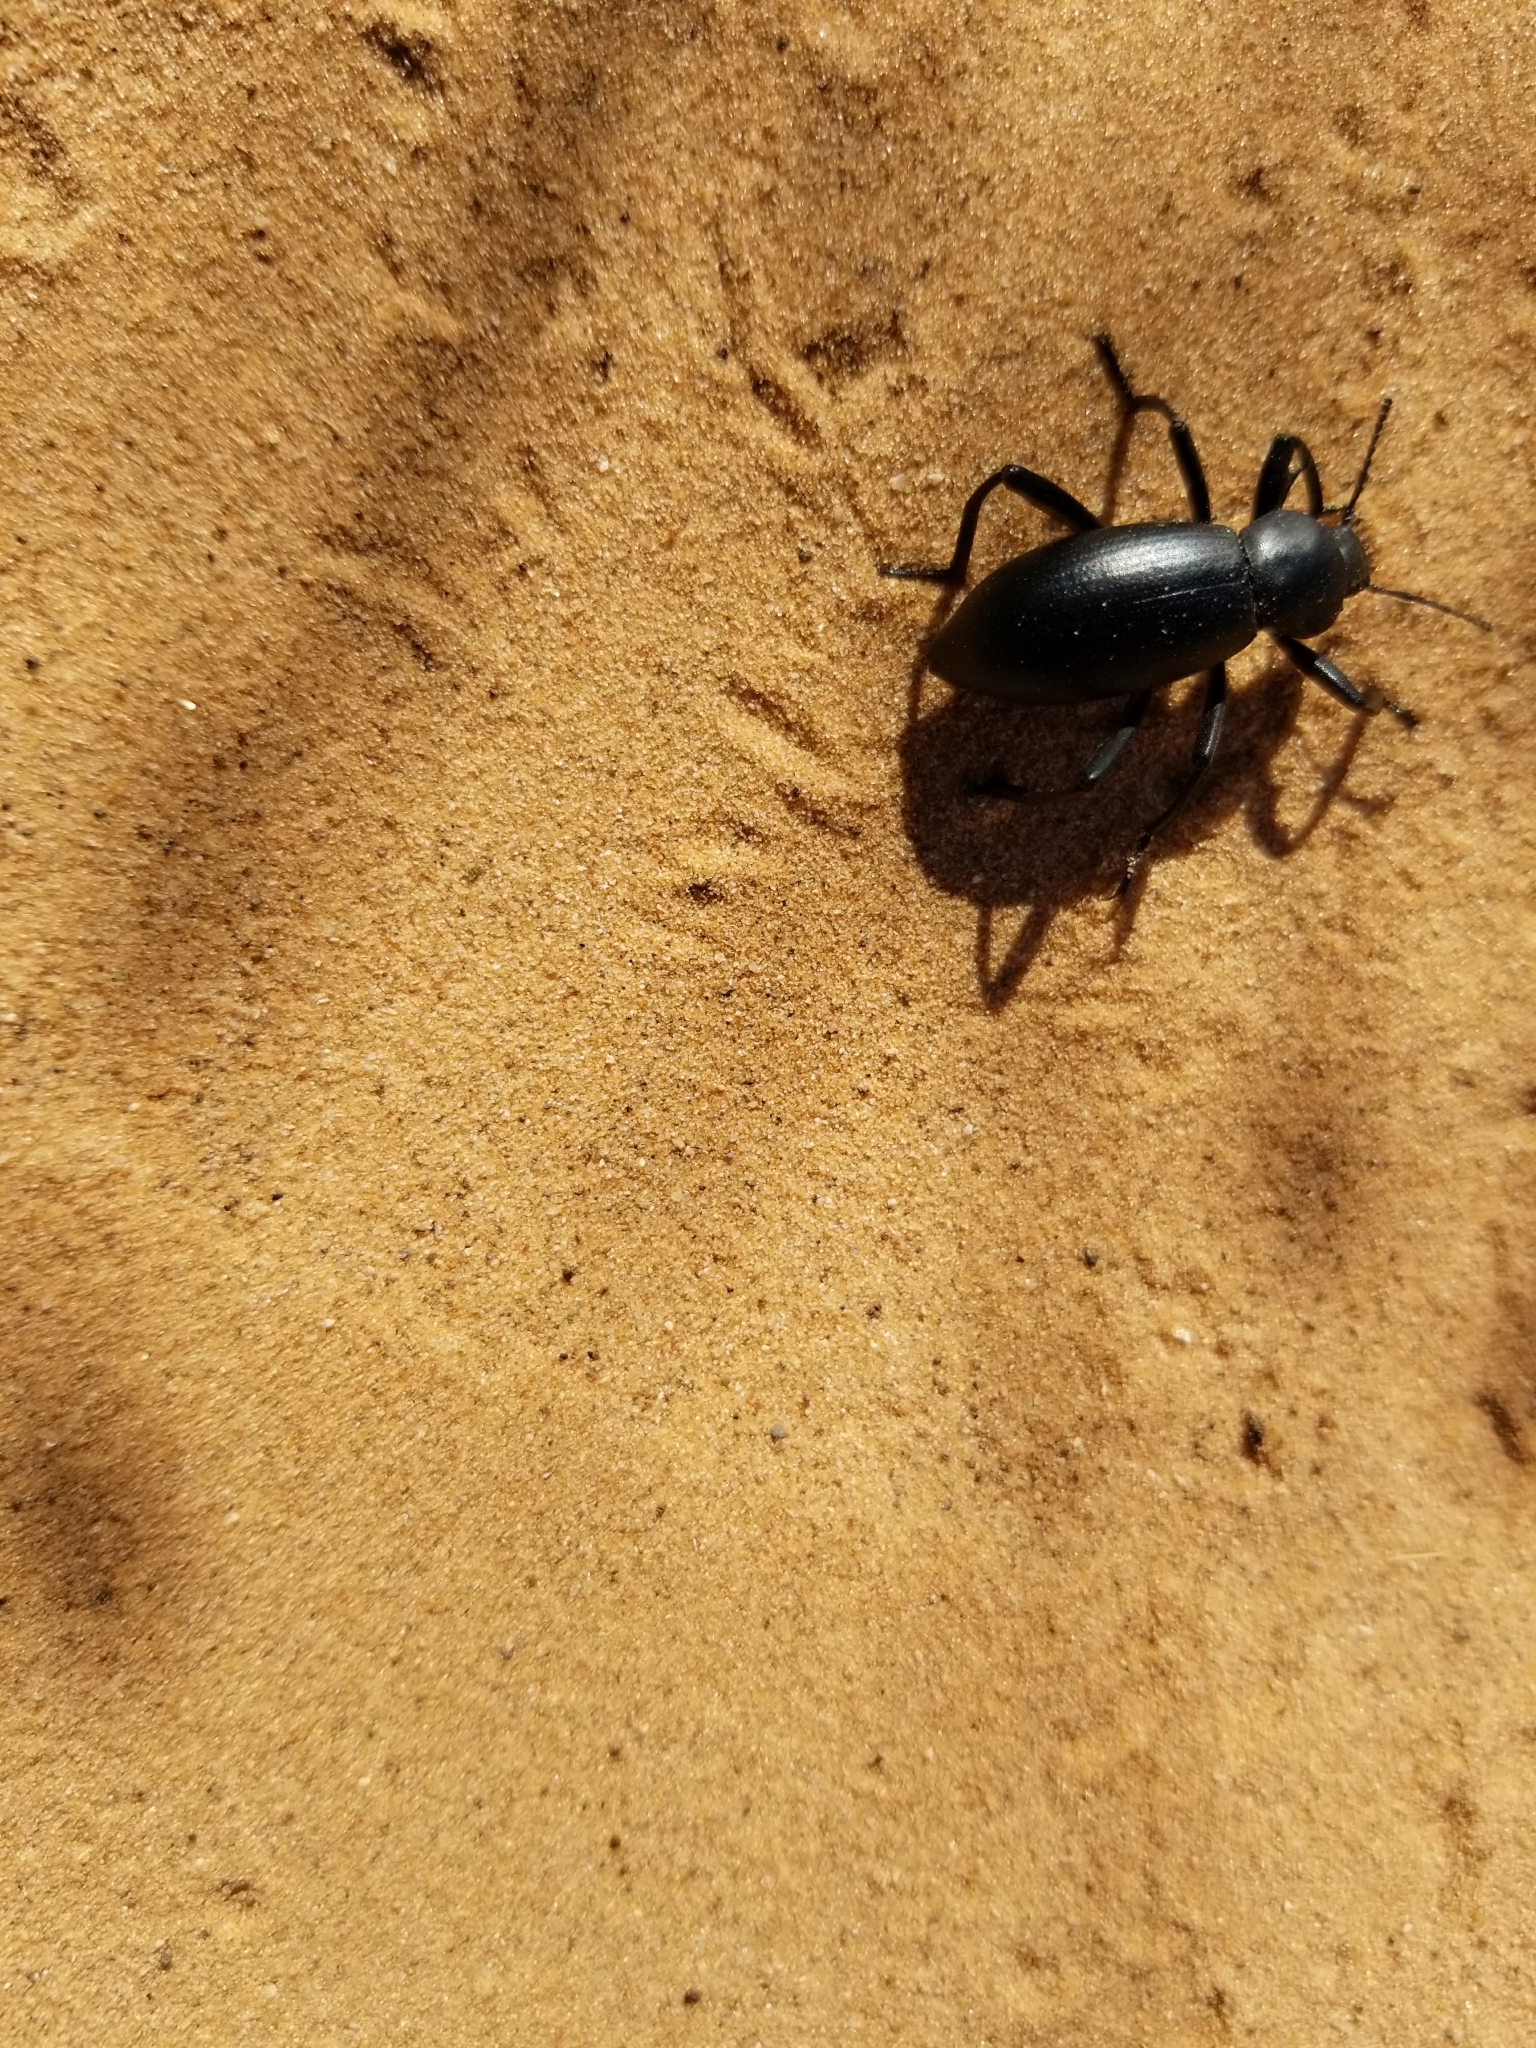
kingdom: Animalia
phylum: Arthropoda
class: Insecta
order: Coleoptera
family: Tenebrionidae
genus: Eleodes
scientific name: Eleodes armata
